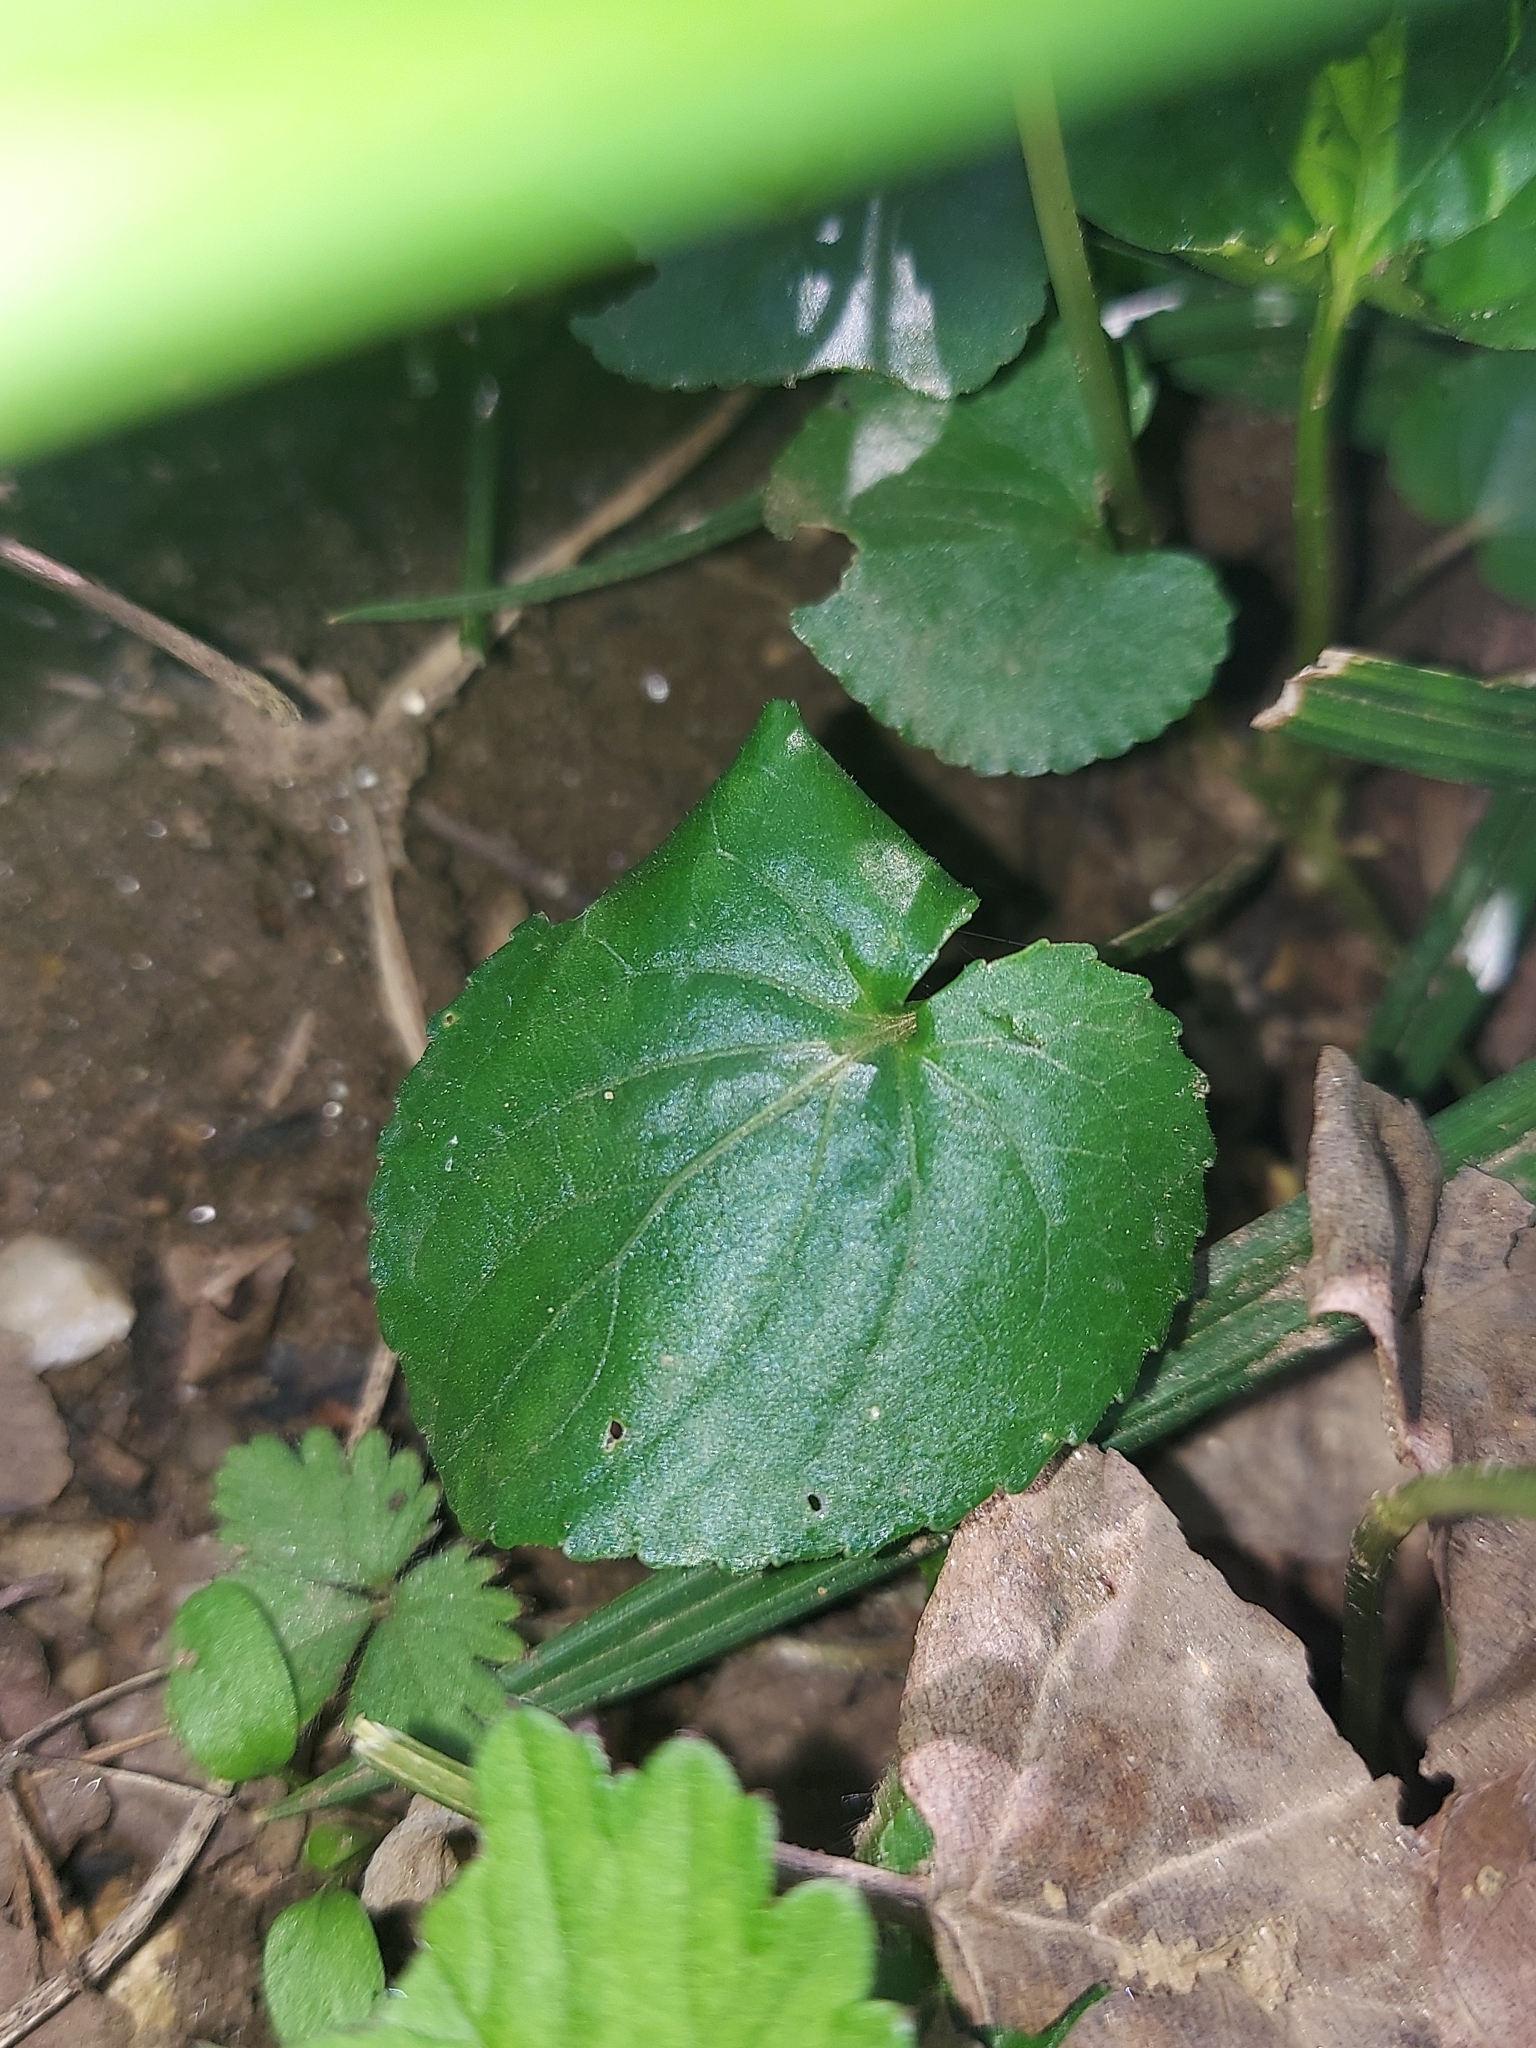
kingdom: Plantae
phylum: Tracheophyta
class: Magnoliopsida
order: Malpighiales
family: Violaceae
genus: Viola
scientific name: Viola sororia
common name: Dooryard violet
